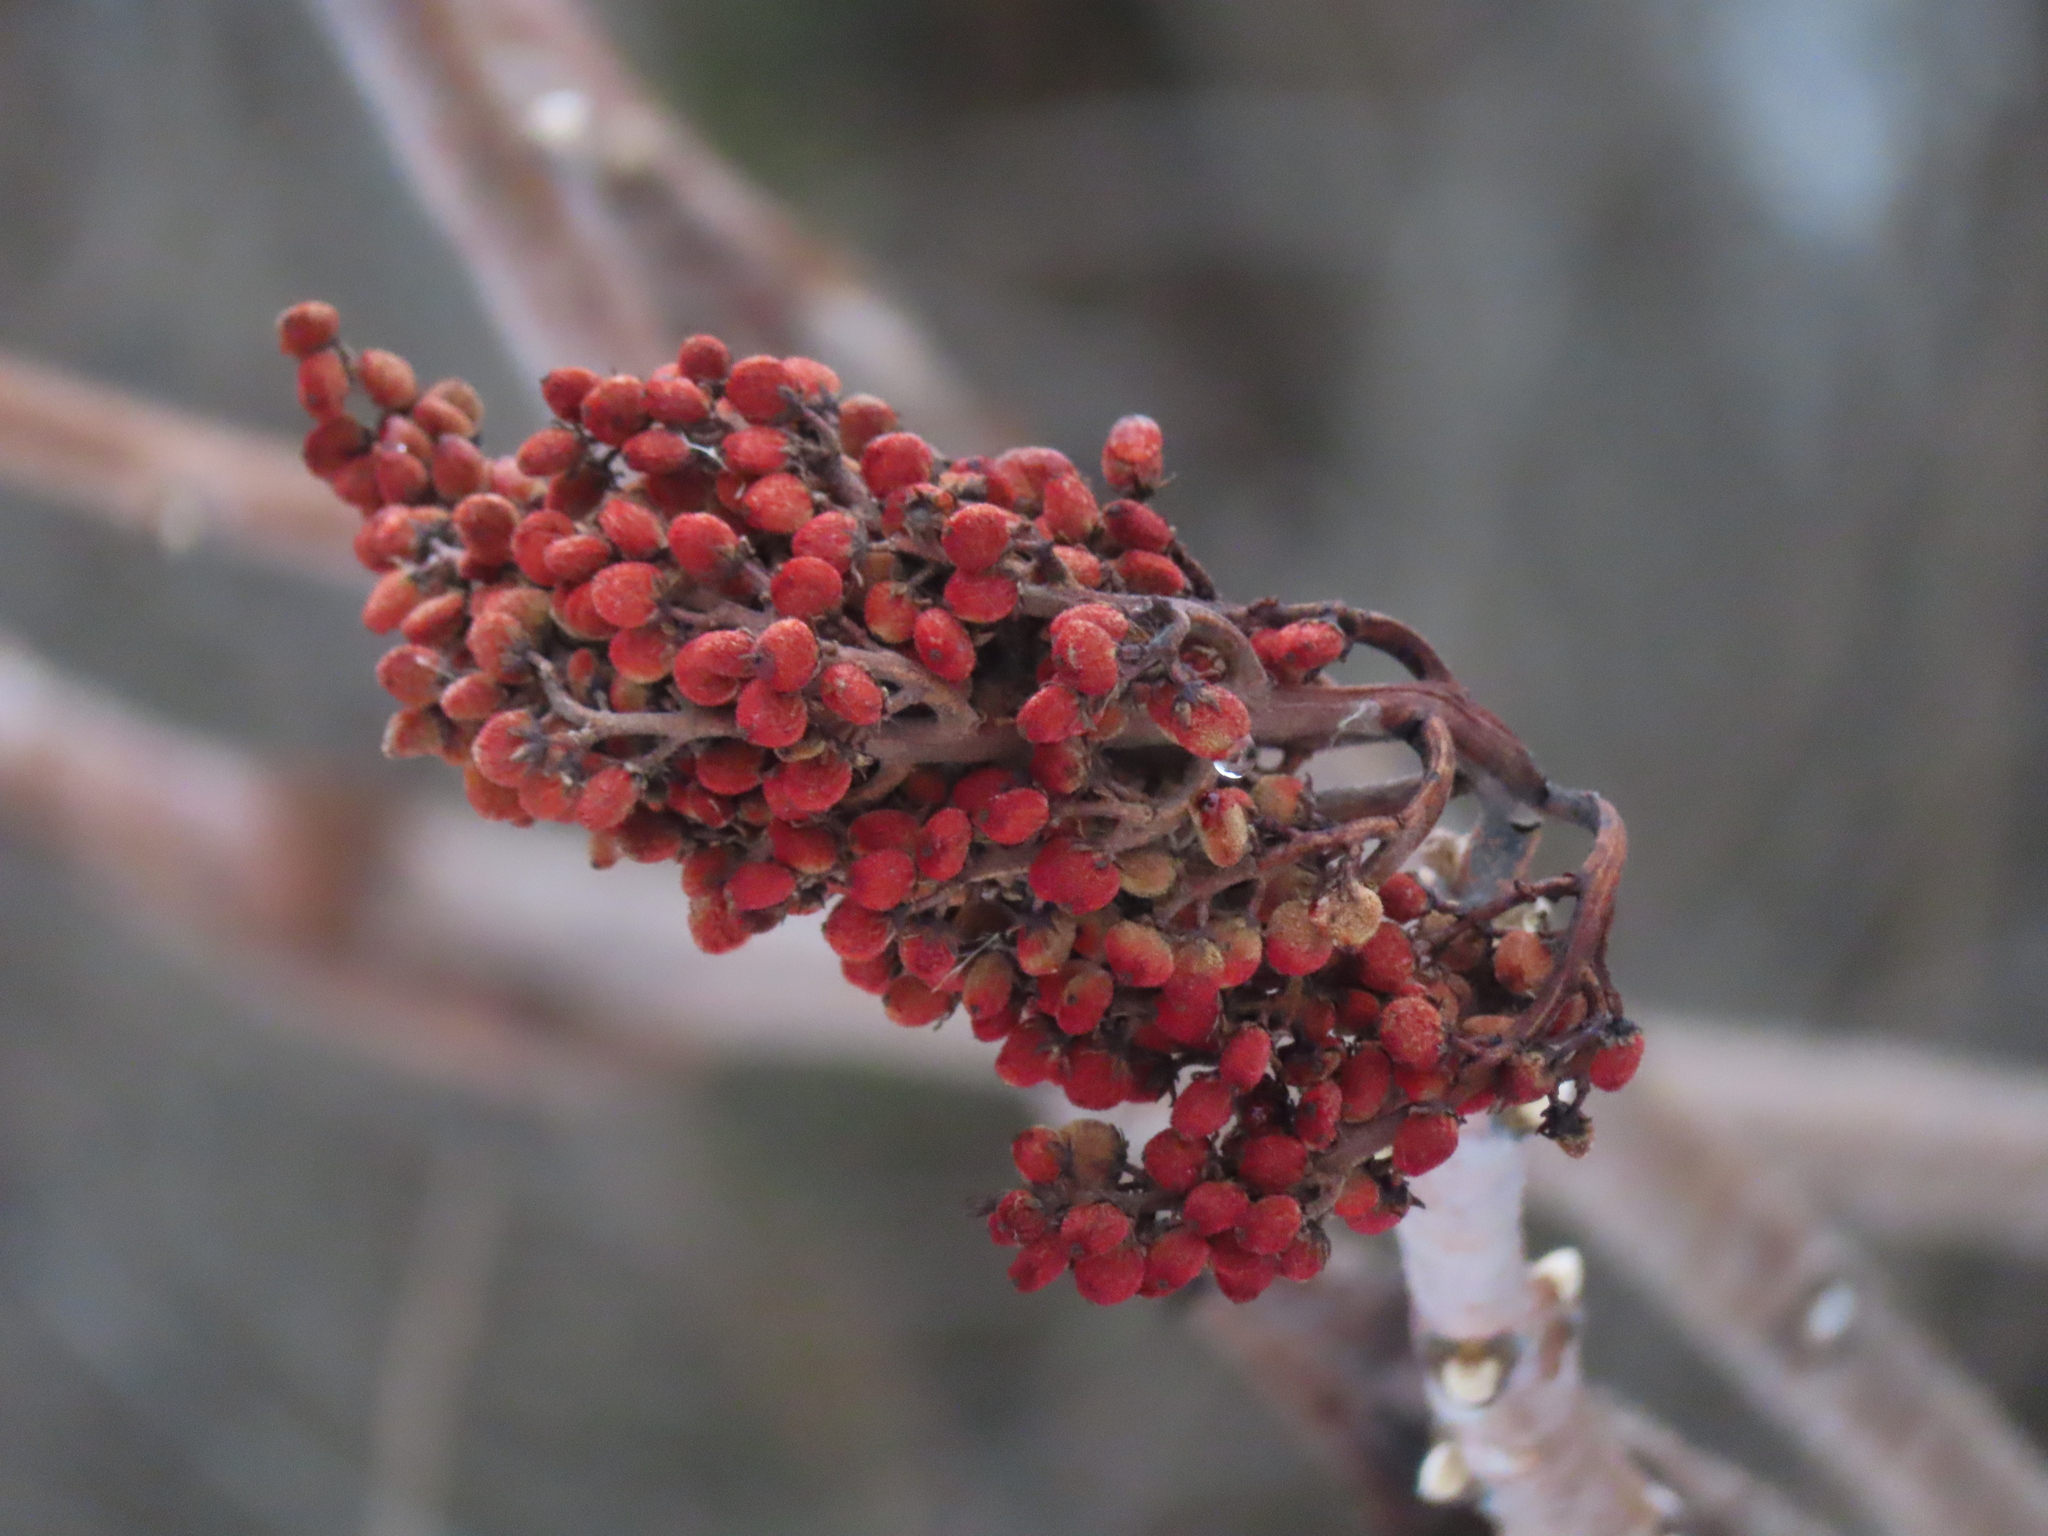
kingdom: Plantae
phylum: Tracheophyta
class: Magnoliopsida
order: Sapindales
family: Anacardiaceae
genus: Rhus
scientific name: Rhus glabra
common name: Scarlet sumac
